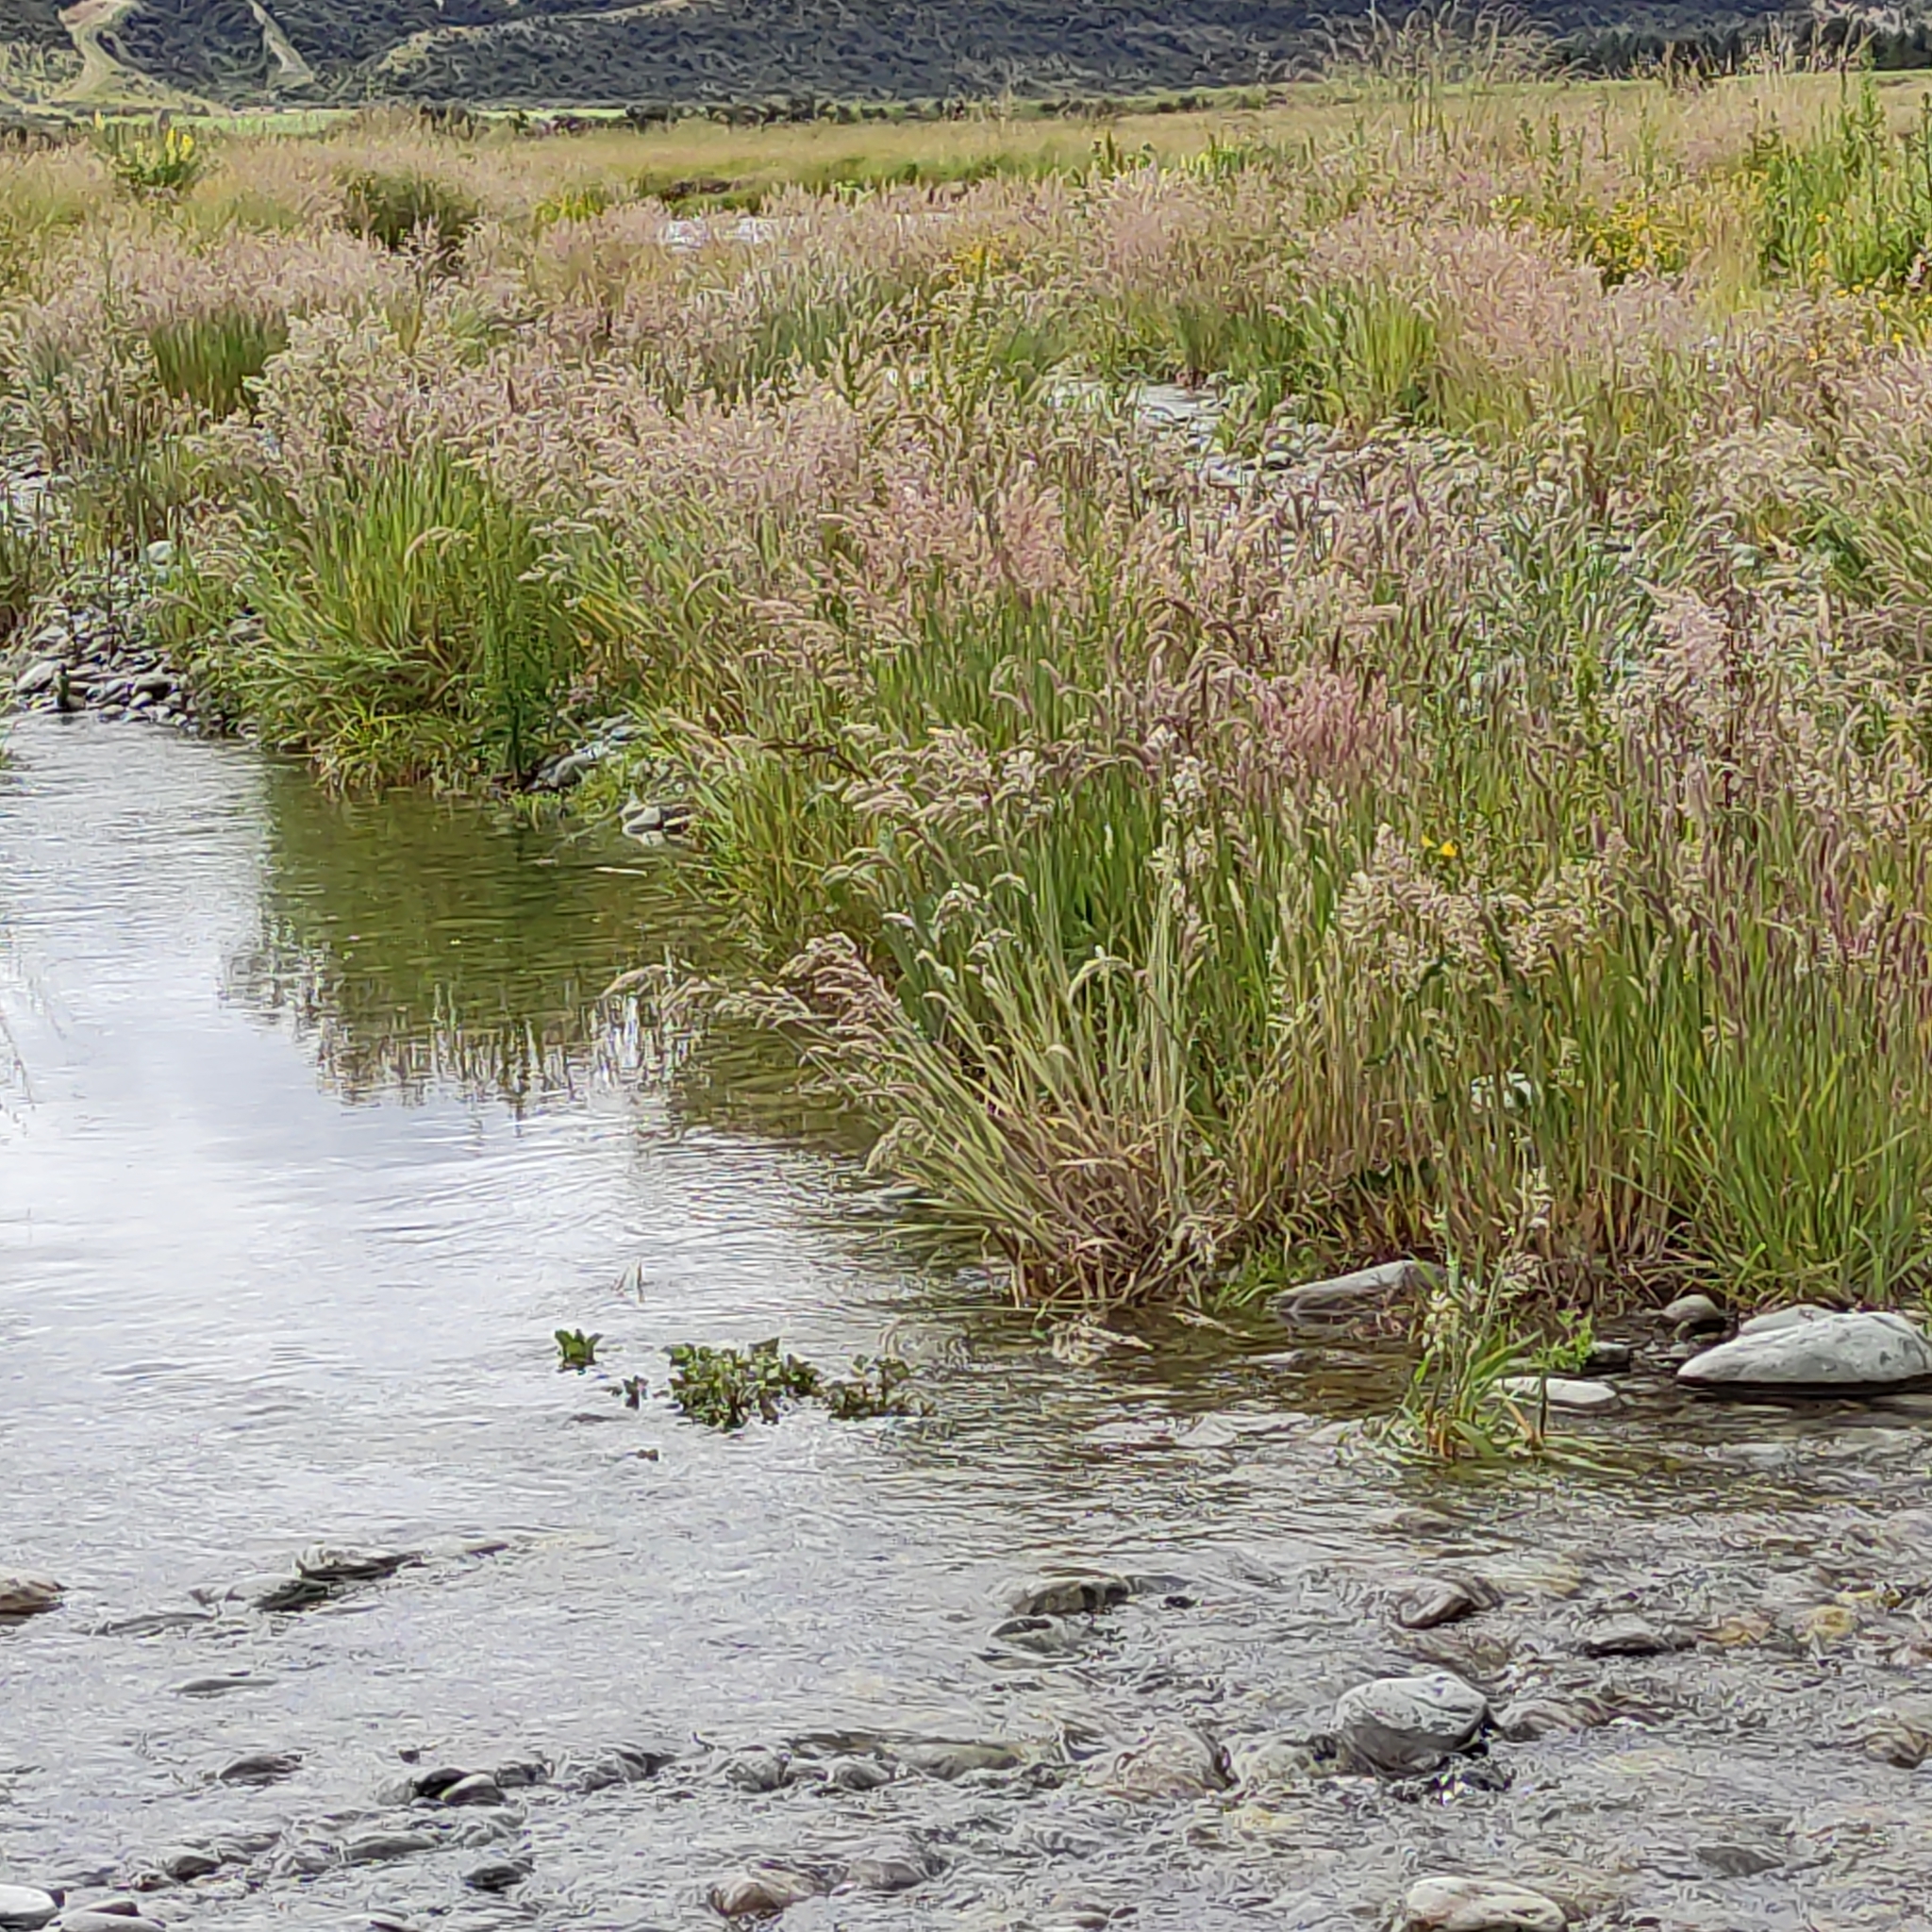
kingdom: Plantae
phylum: Tracheophyta
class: Liliopsida
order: Poales
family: Poaceae
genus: Holcus
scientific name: Holcus lanatus
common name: Yorkshire-fog
